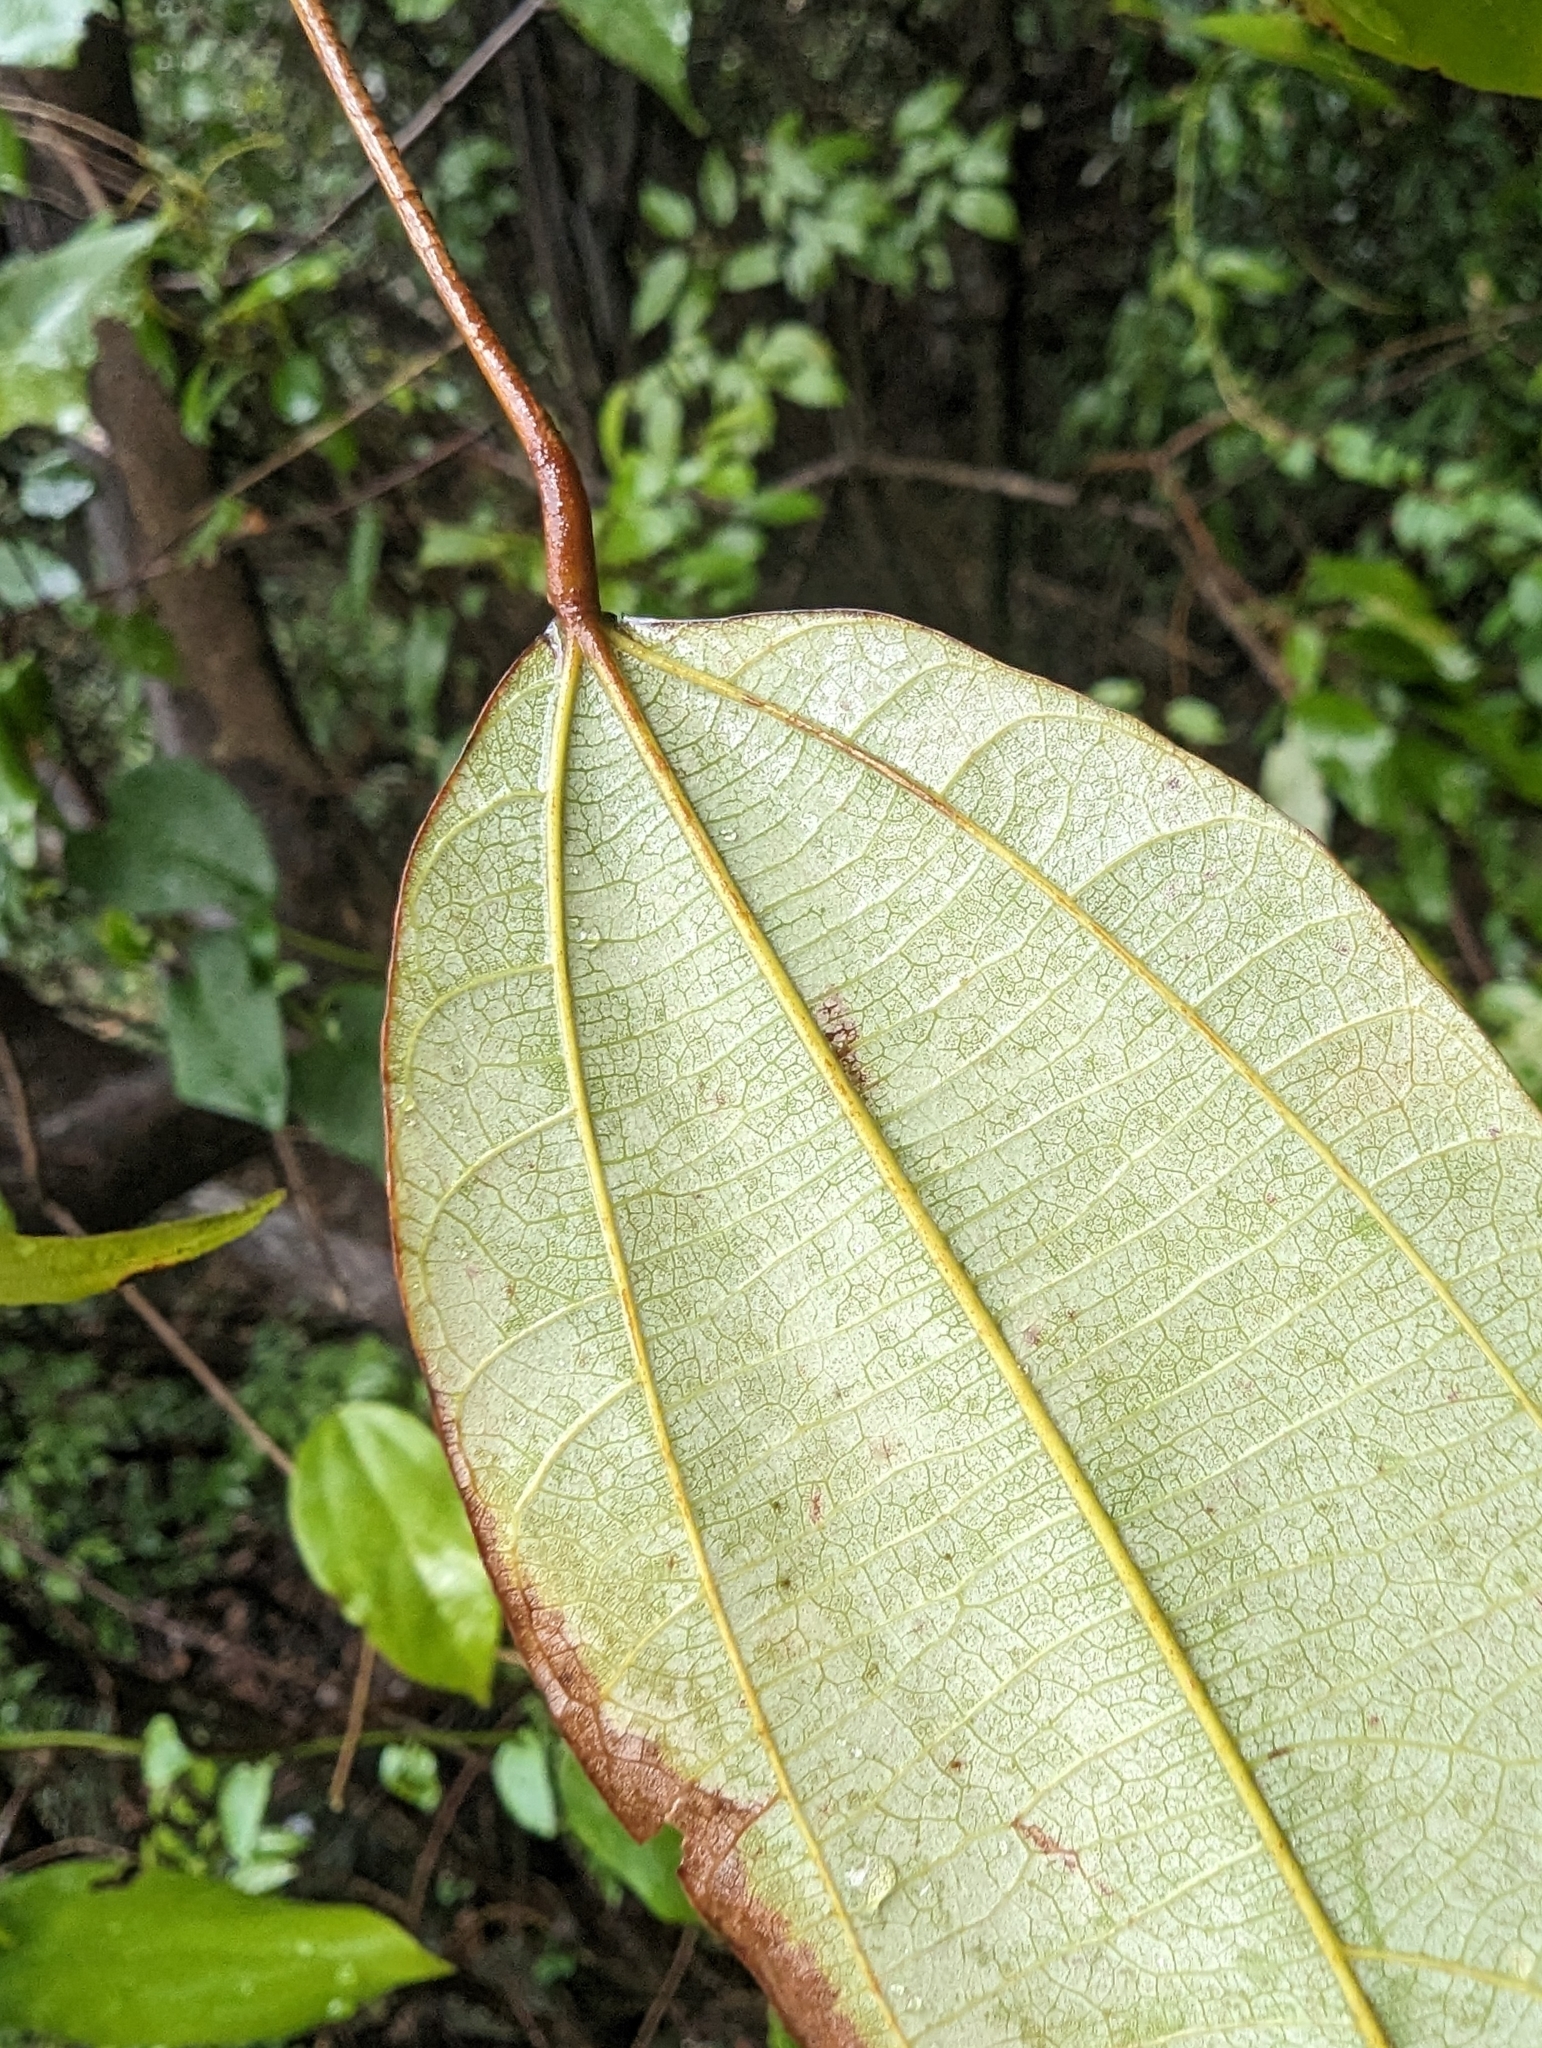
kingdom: Plantae
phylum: Tracheophyta
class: Magnoliopsida
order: Malpighiales
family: Euphorbiaceae
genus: Mallotus
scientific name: Mallotus philippensis
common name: Kamala tree
